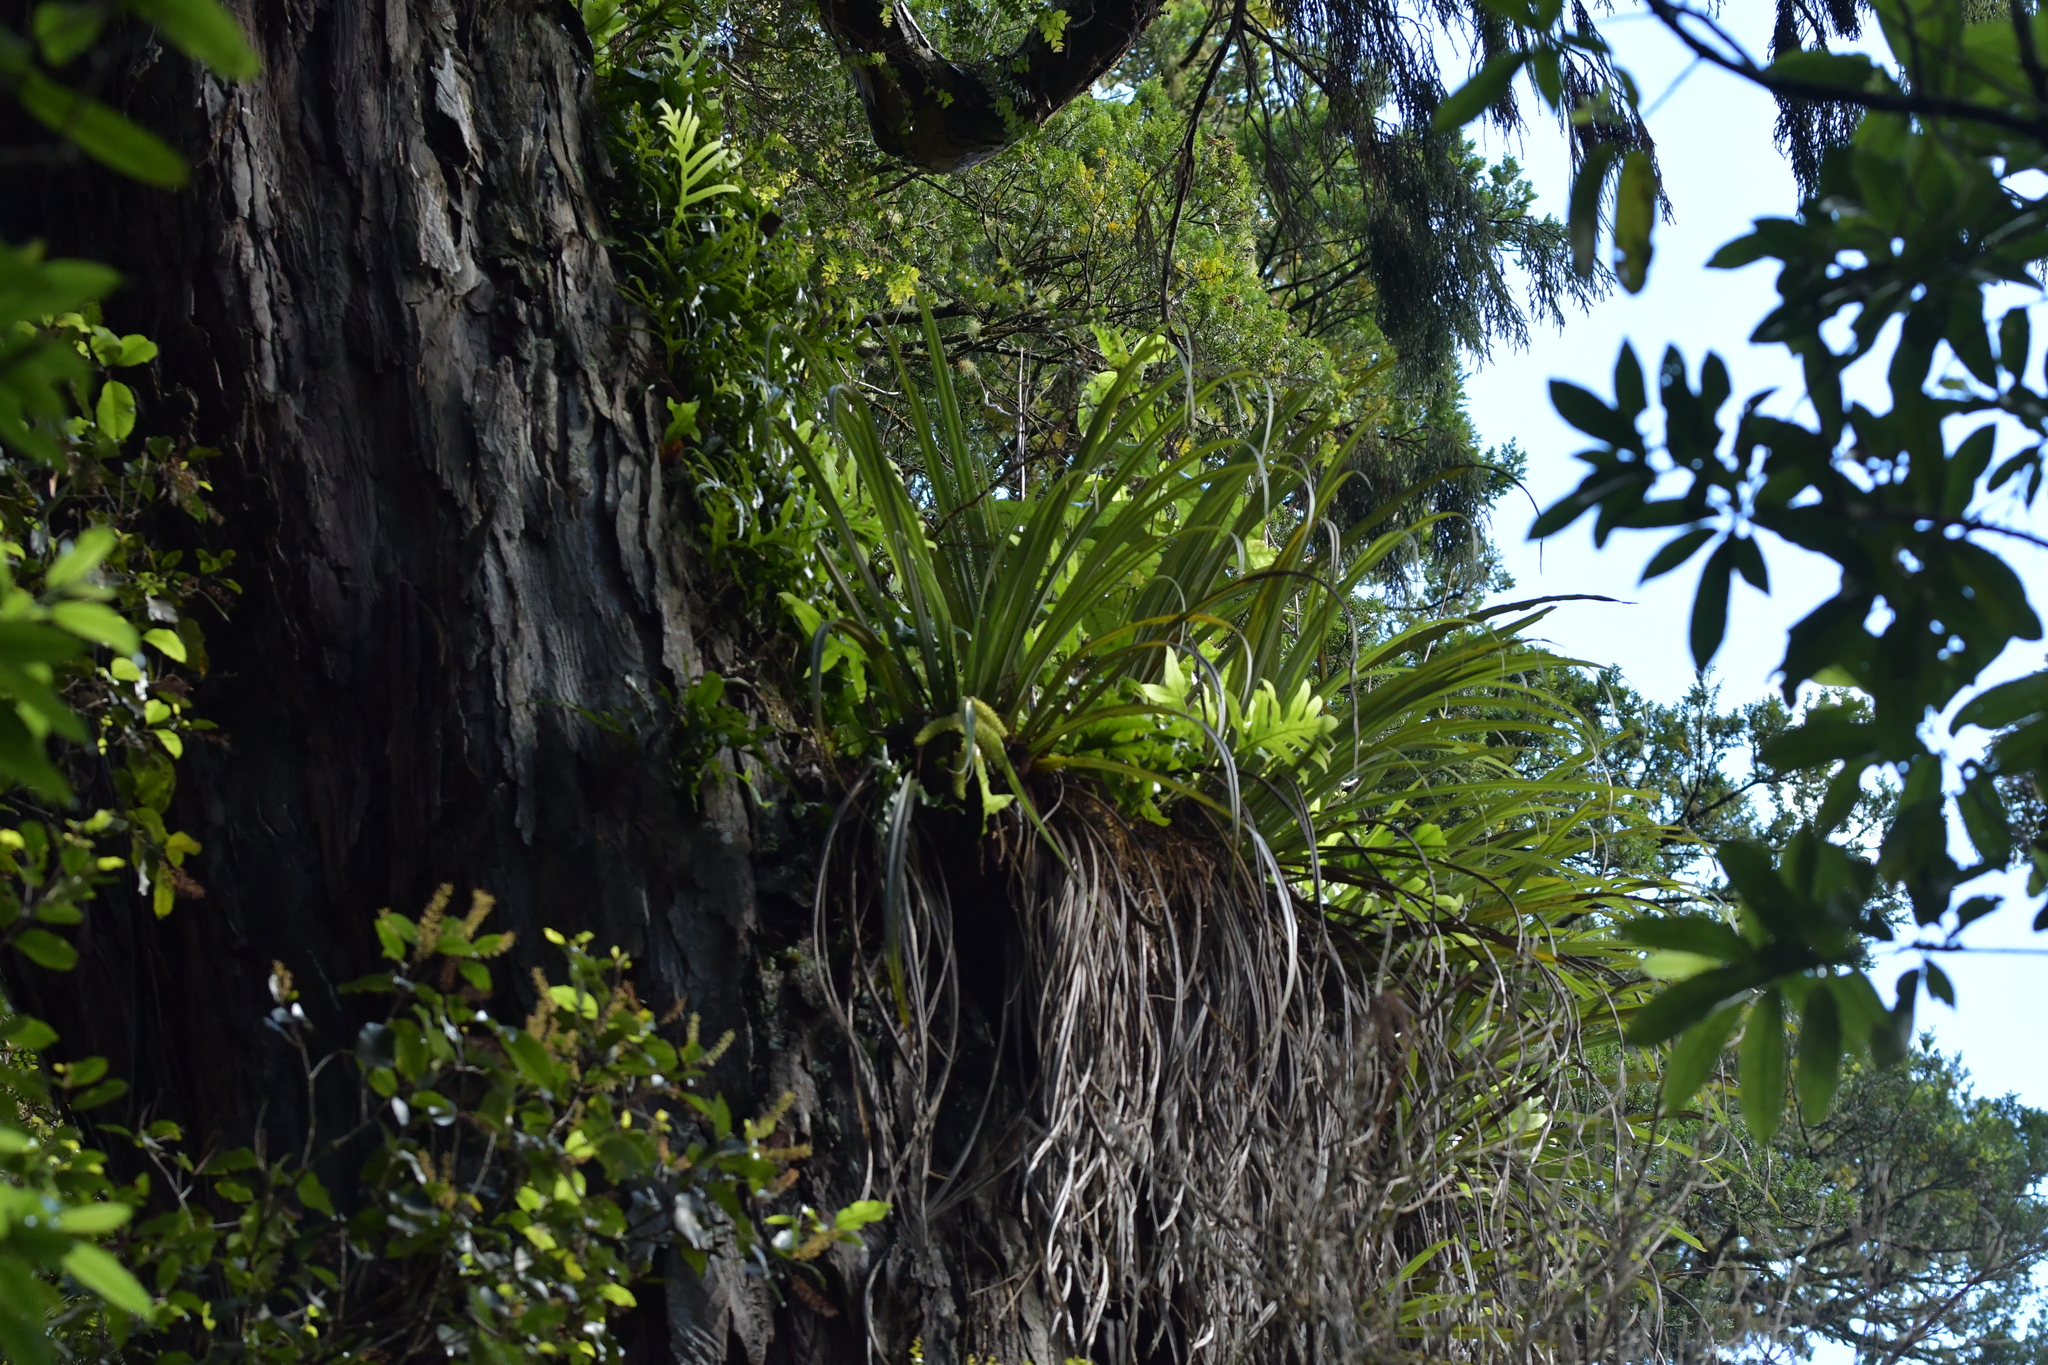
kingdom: Plantae
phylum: Tracheophyta
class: Liliopsida
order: Asparagales
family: Asteliaceae
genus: Astelia
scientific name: Astelia microsperma
